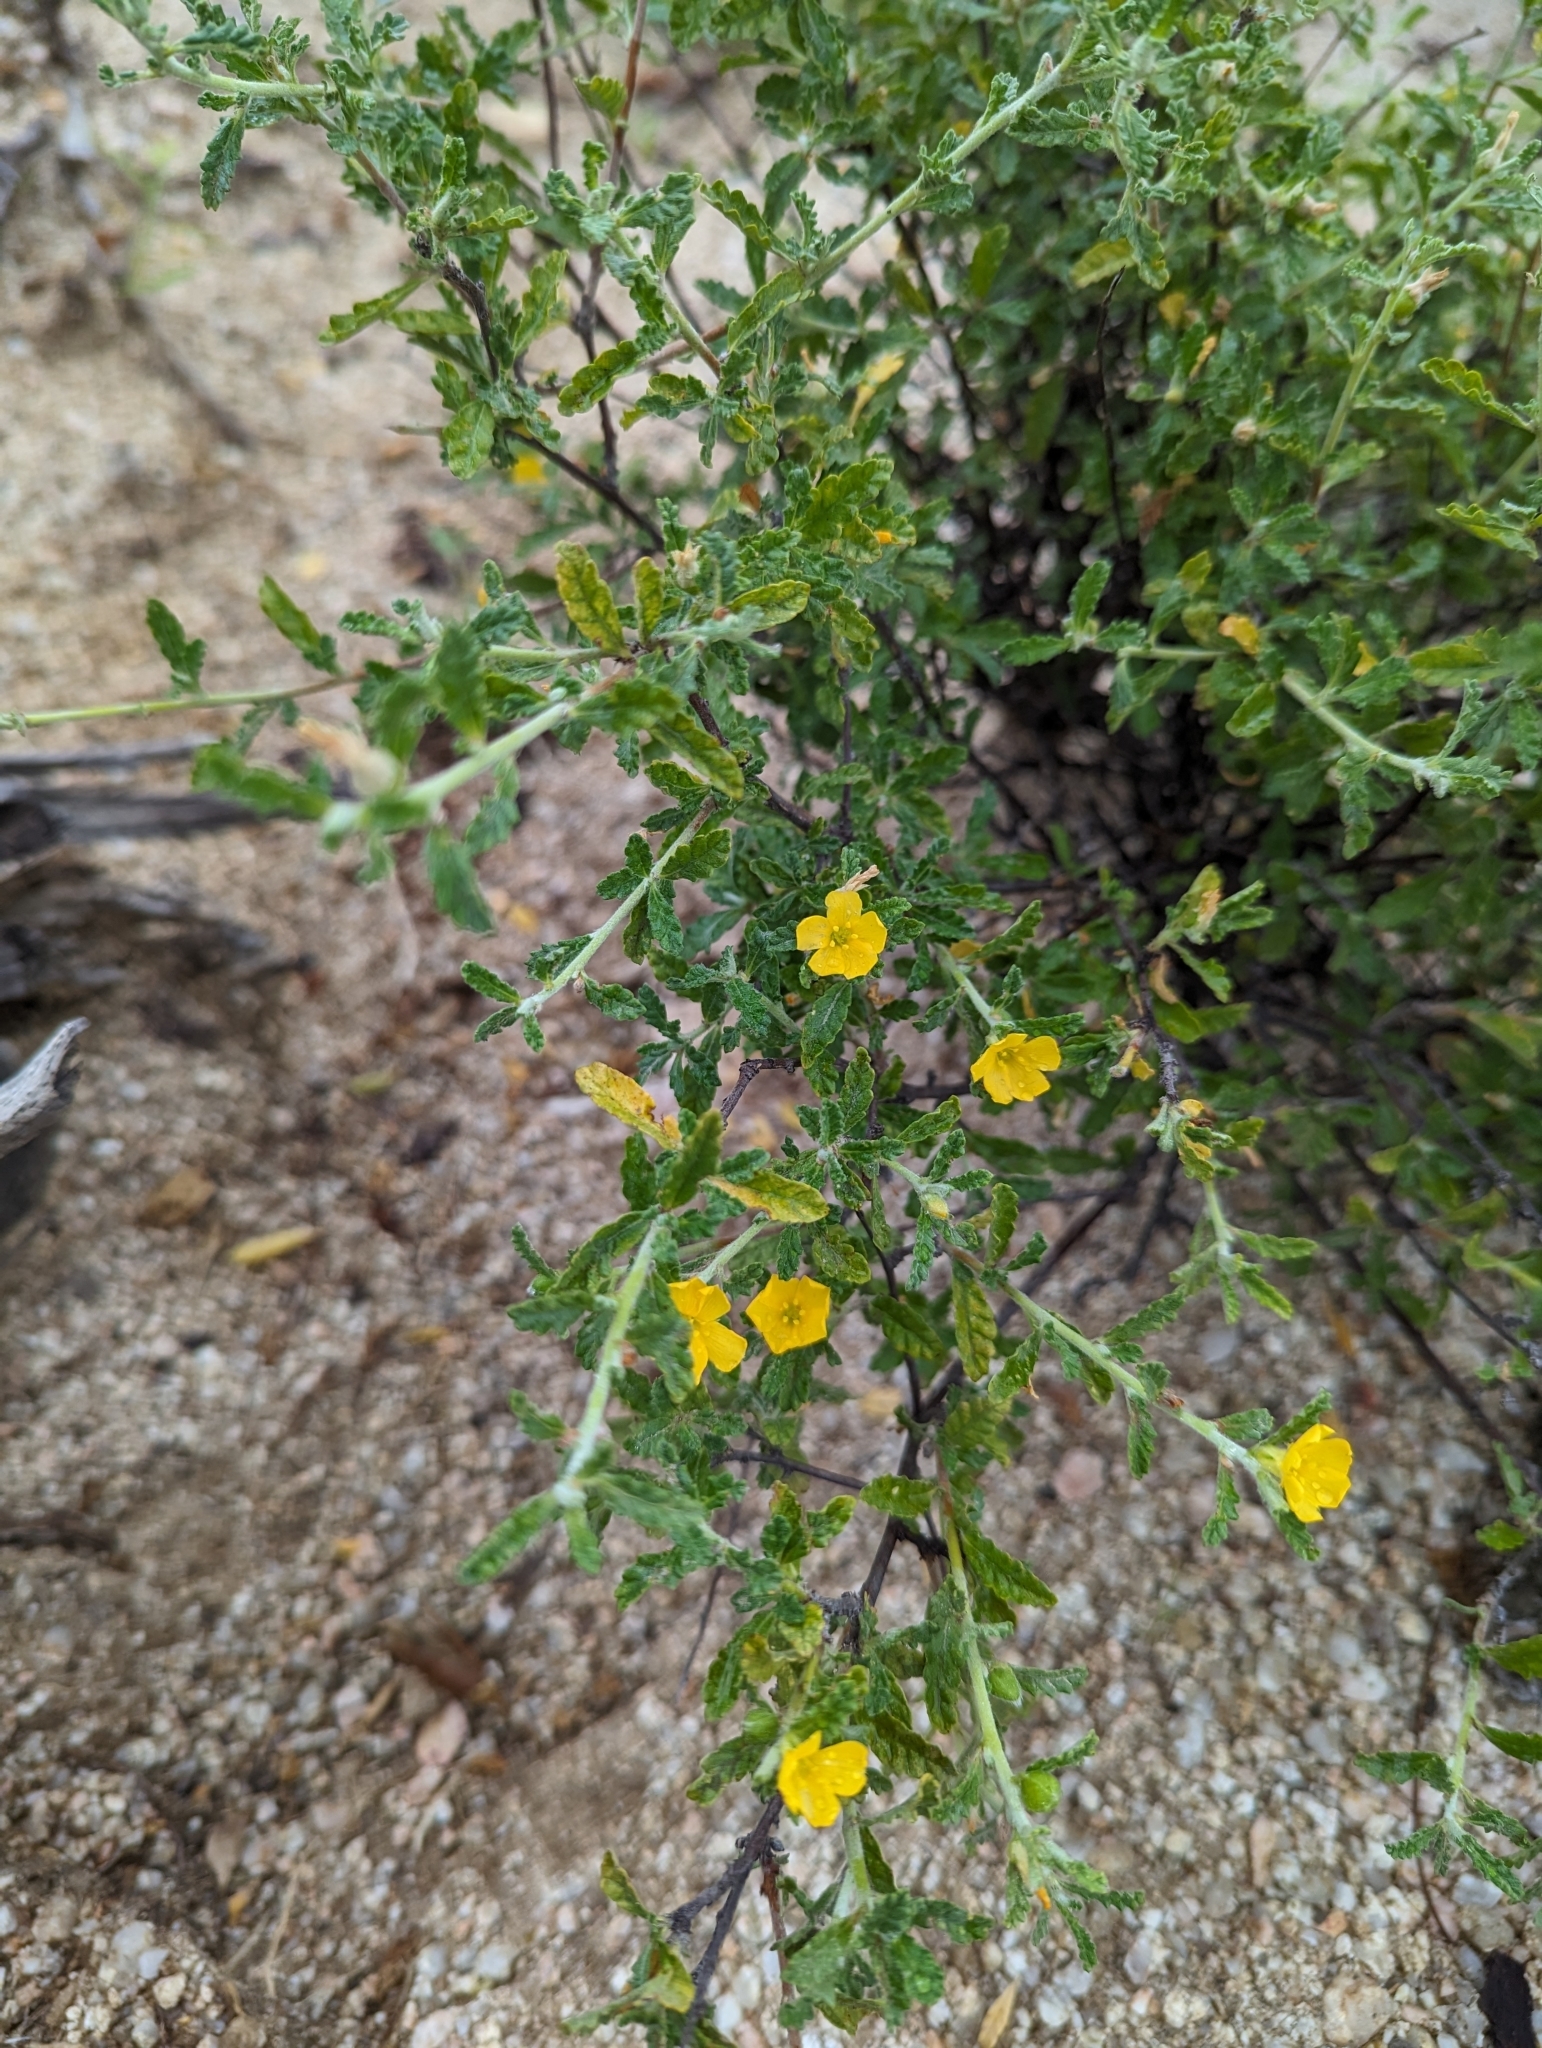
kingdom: Plantae
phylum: Tracheophyta
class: Magnoliopsida
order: Malpighiales
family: Turneraceae
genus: Turnera
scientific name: Turnera diffusa
